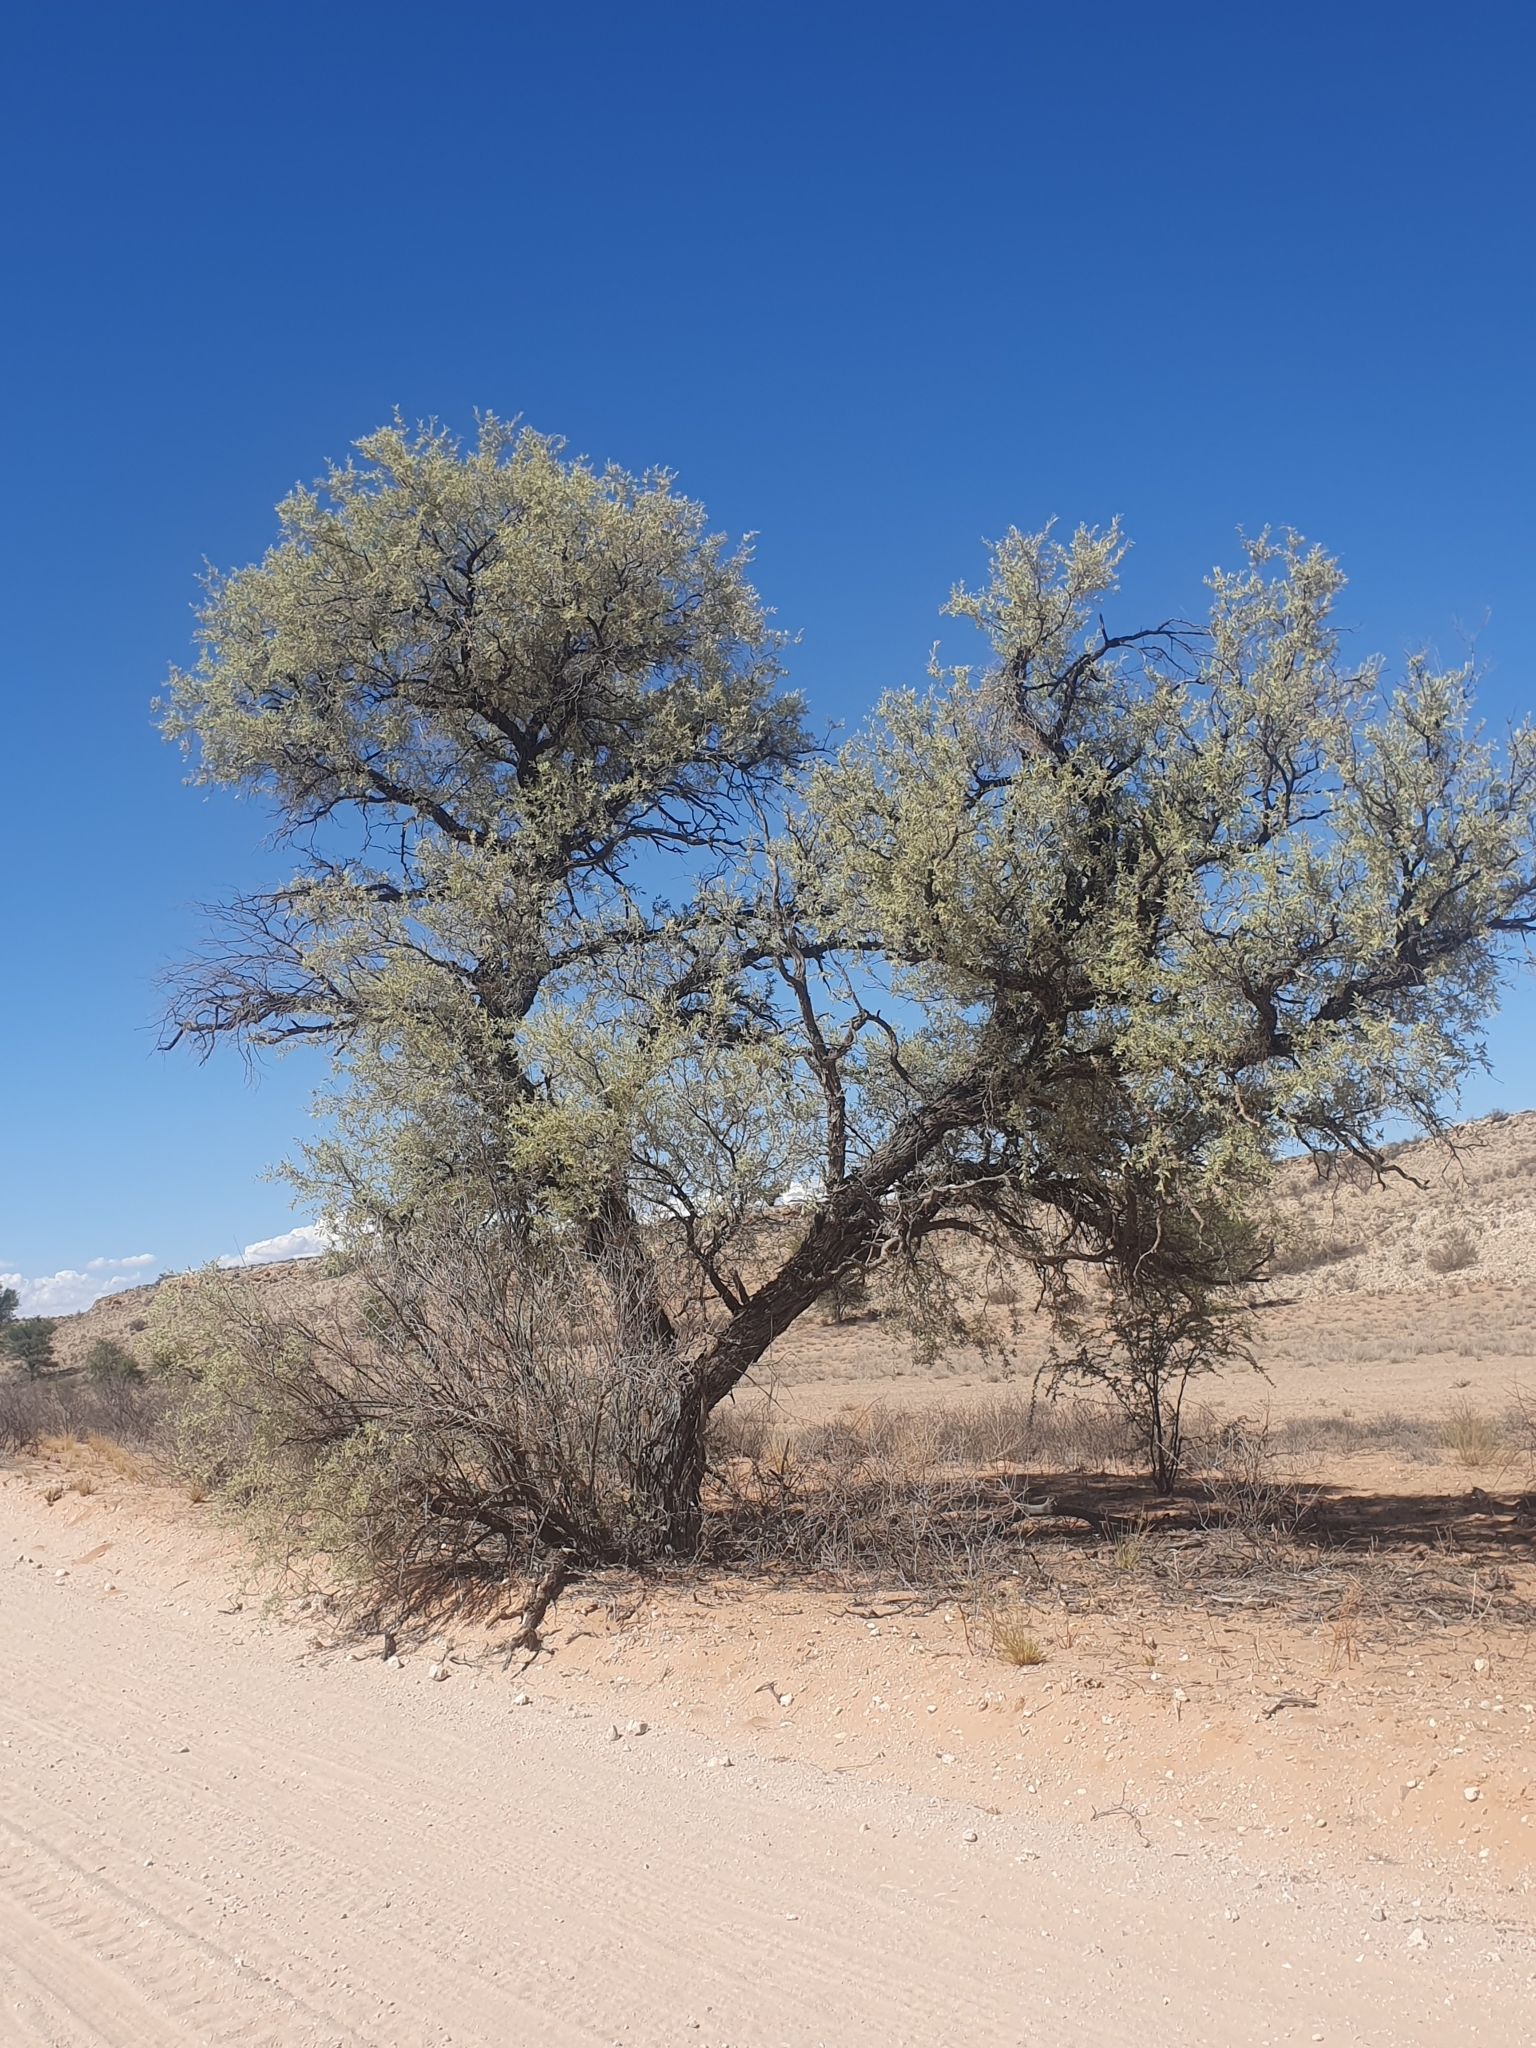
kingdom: Plantae
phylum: Tracheophyta
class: Magnoliopsida
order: Fabales
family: Fabaceae
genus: Vachellia
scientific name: Vachellia haematoxylon
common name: Grey camel thorn
